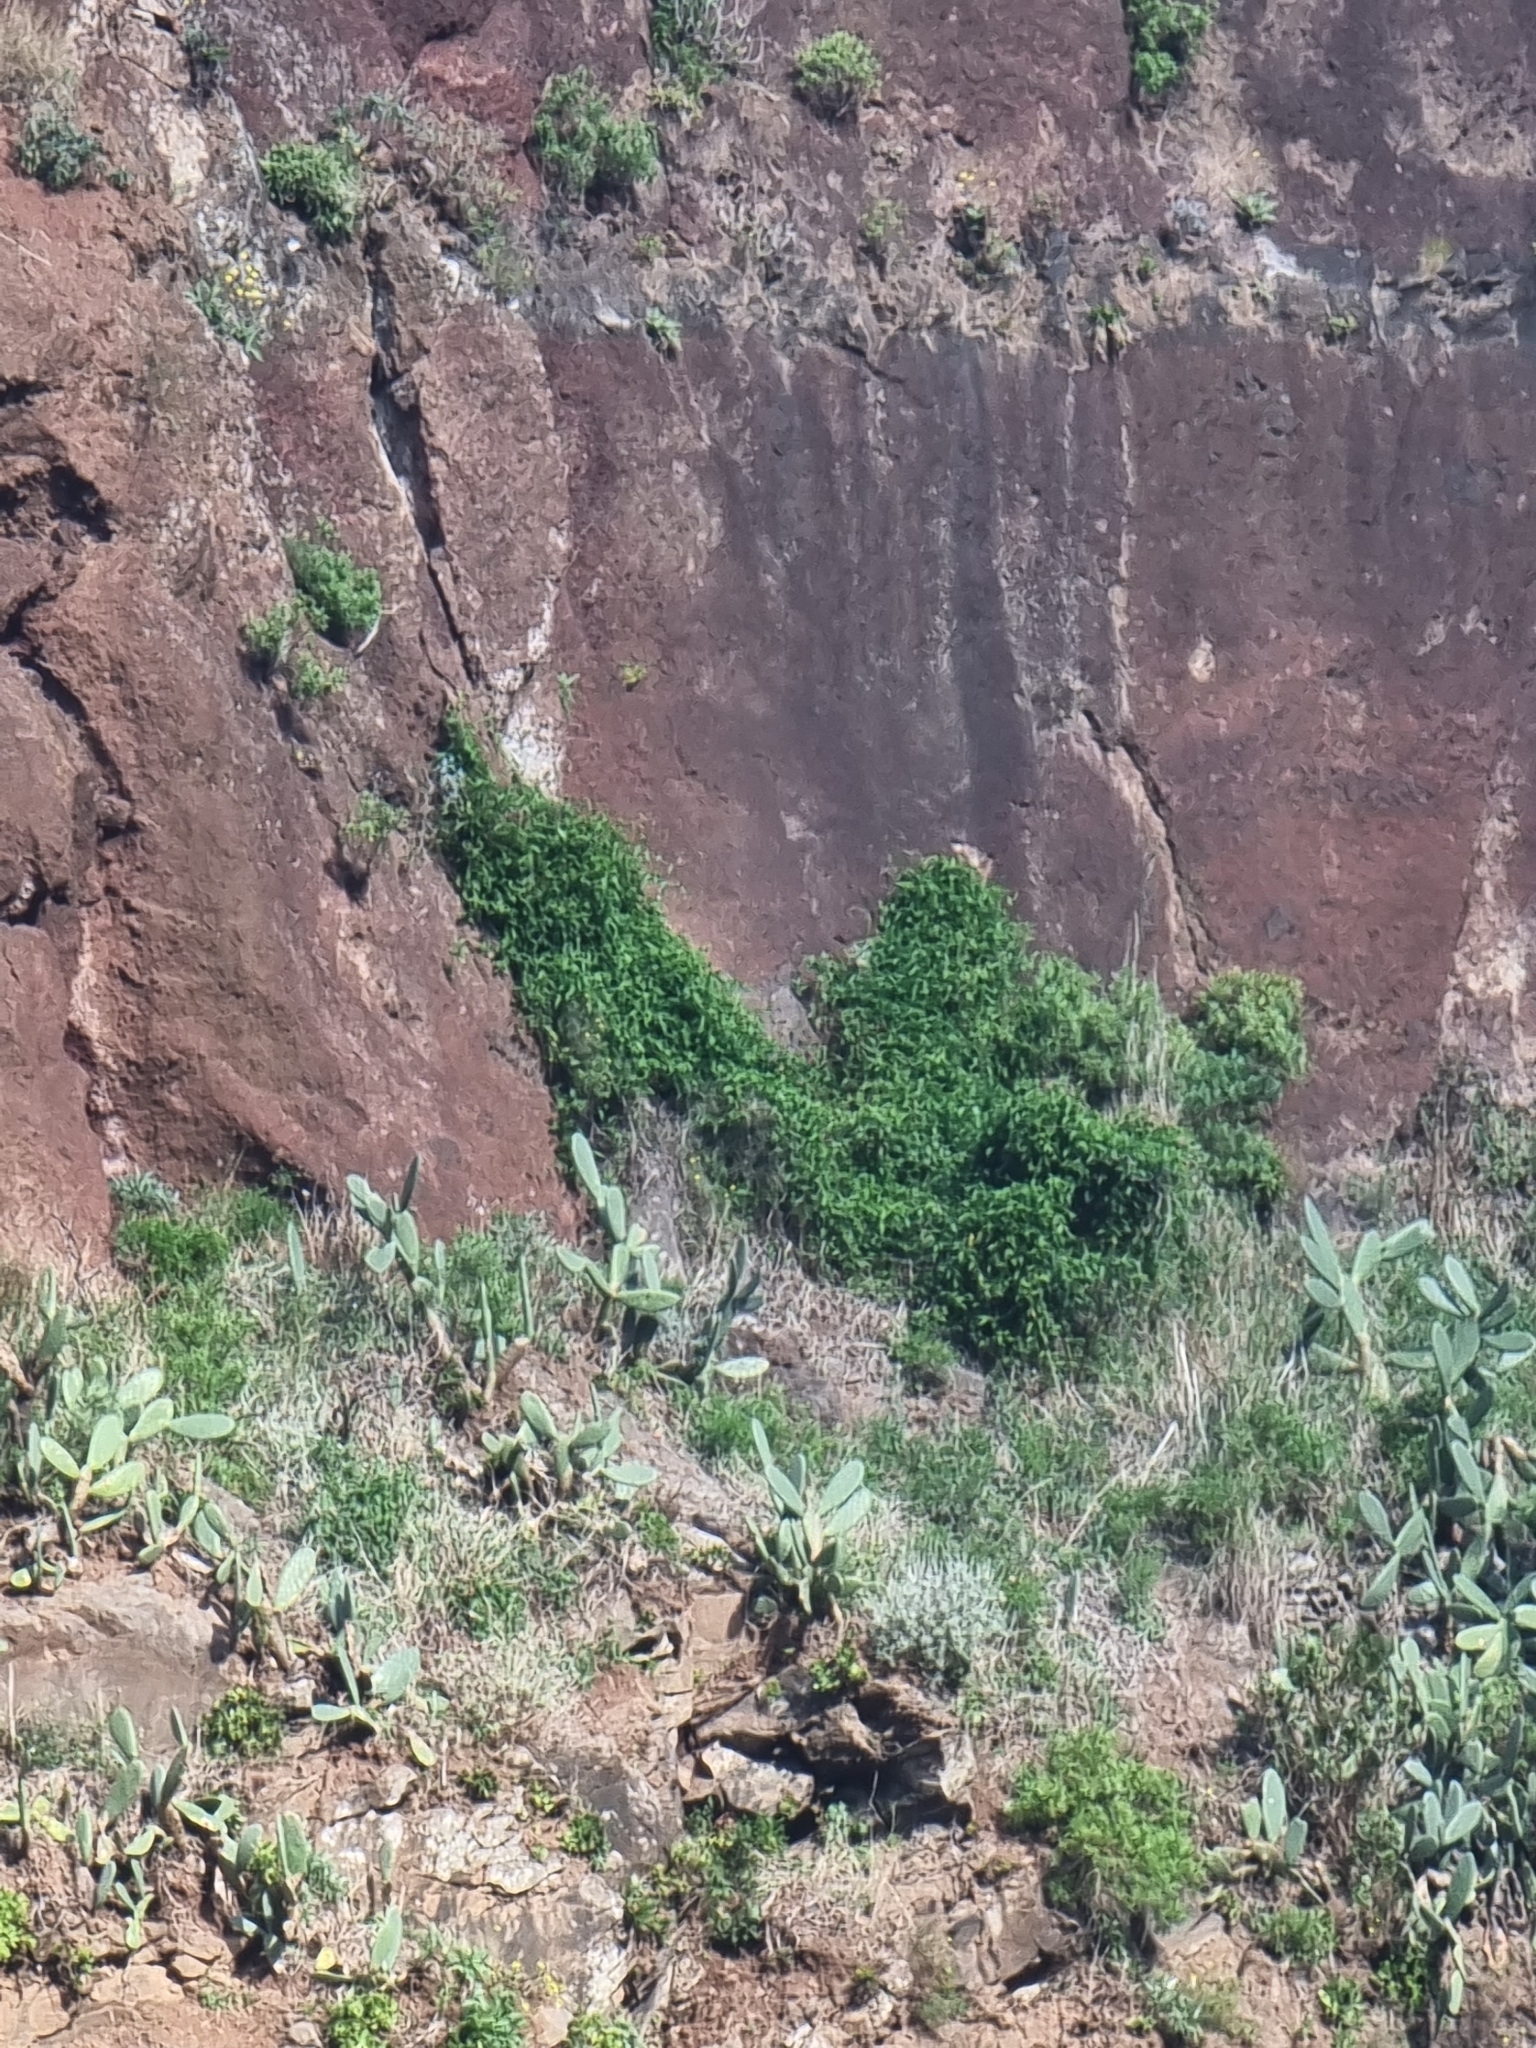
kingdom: Plantae
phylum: Tracheophyta
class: Magnoliopsida
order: Solanales
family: Convolvulaceae
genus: Convolvulus
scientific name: Convolvulus massonii
